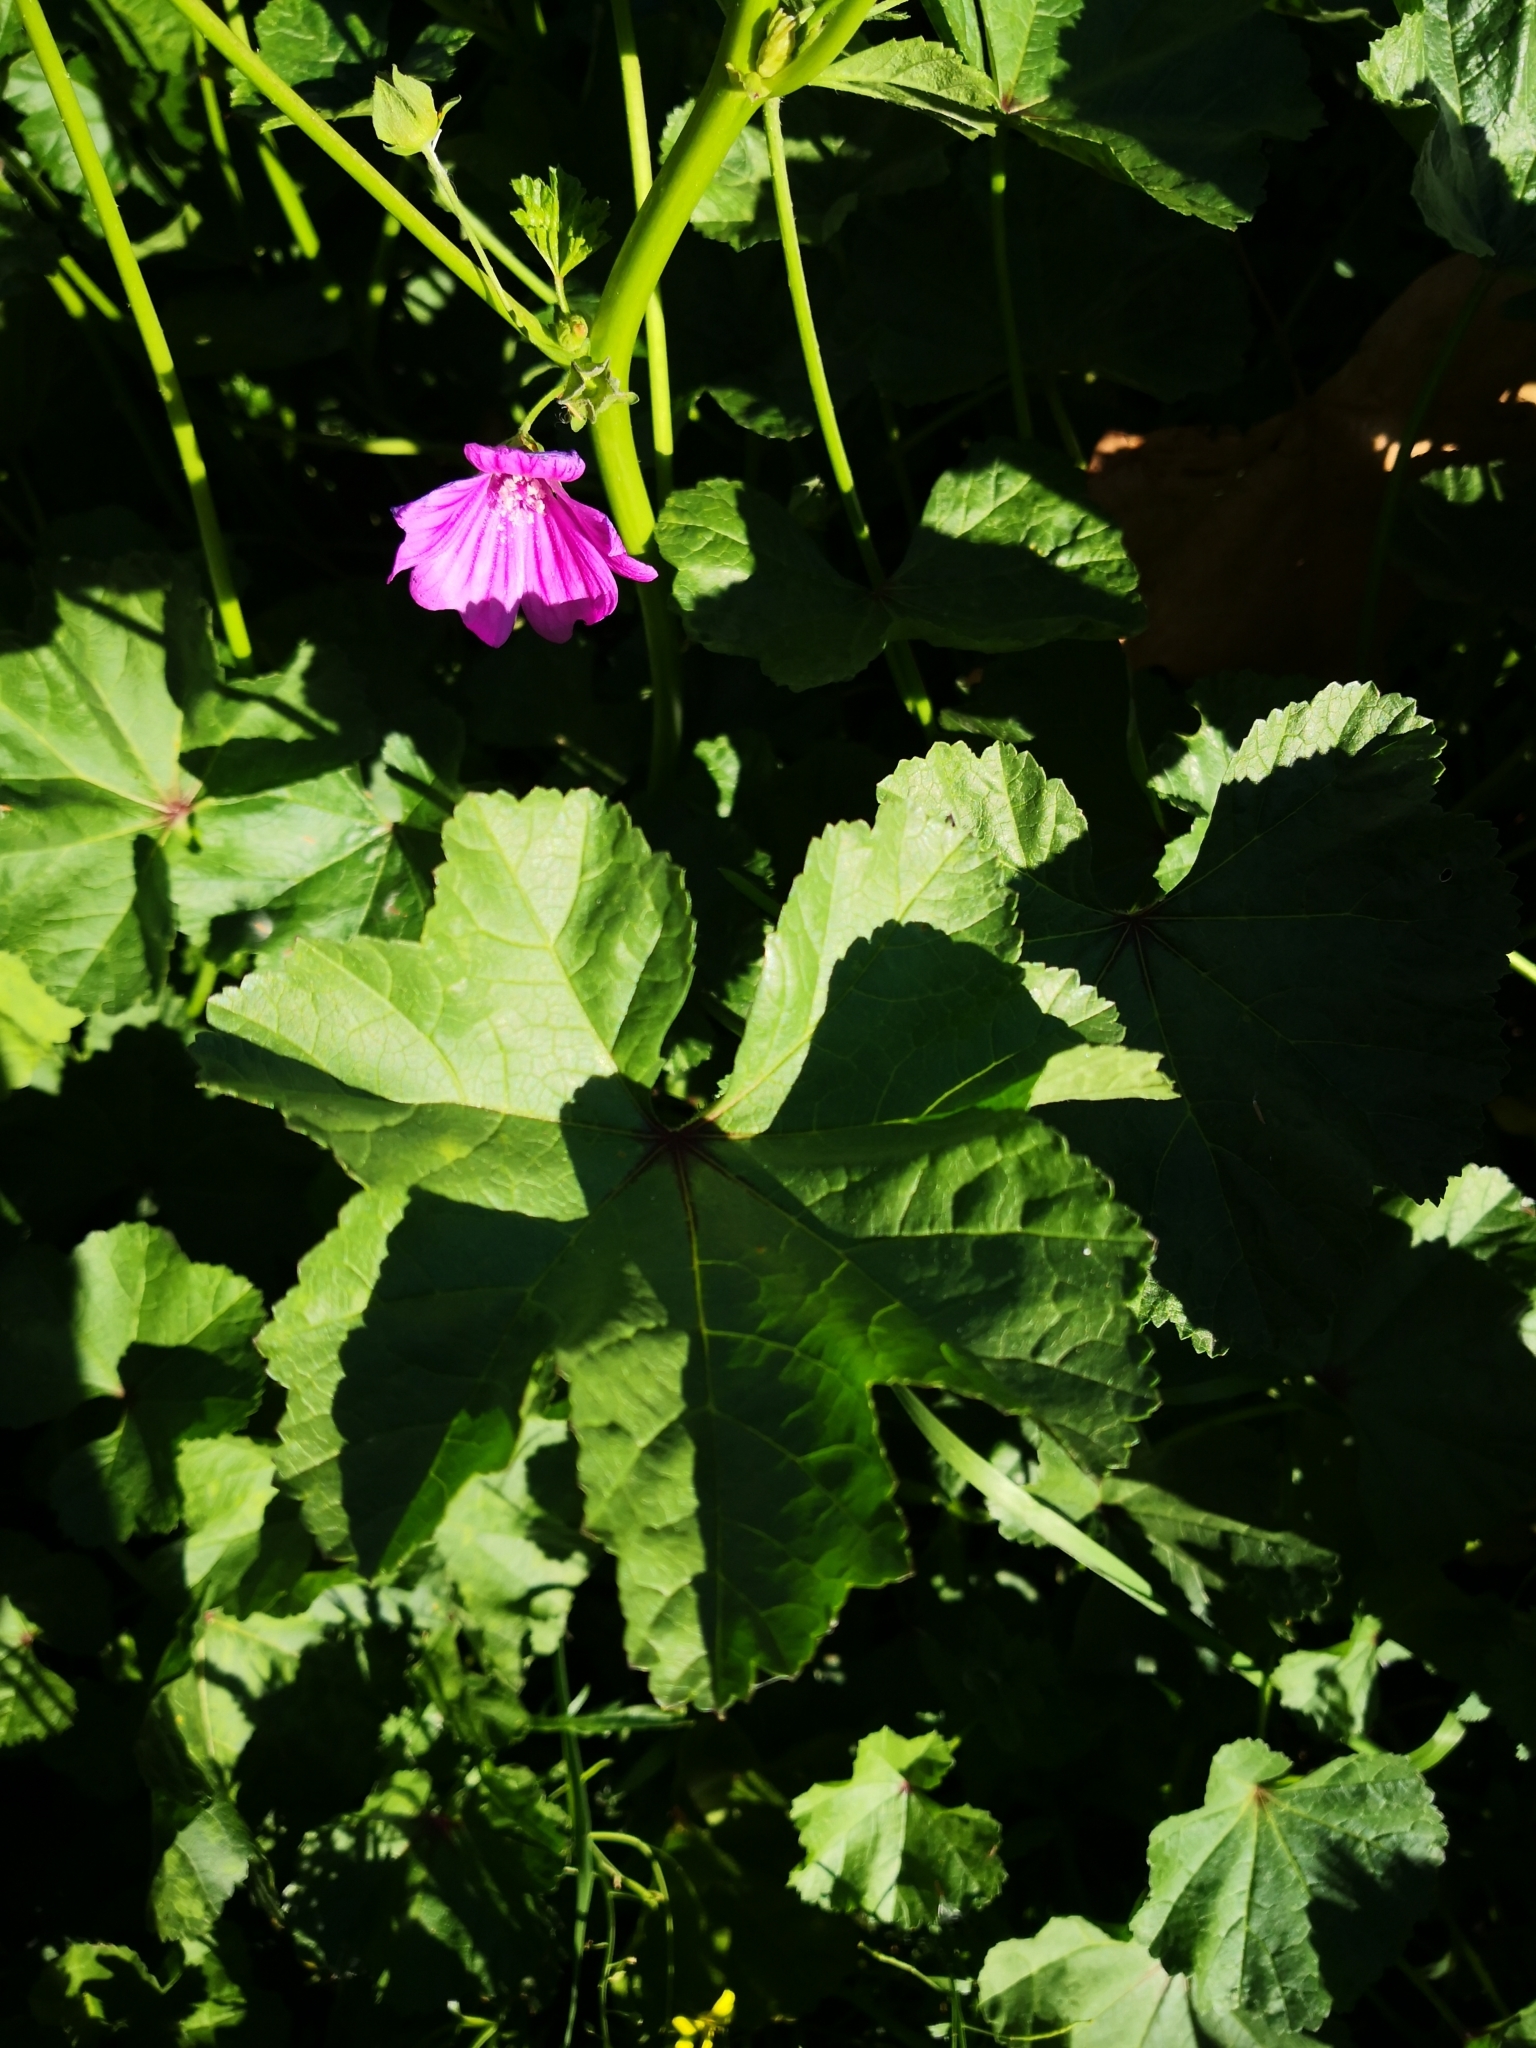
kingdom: Plantae
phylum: Tracheophyta
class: Magnoliopsida
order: Malvales
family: Malvaceae
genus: Malva
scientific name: Malva sylvestris
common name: Common mallow
